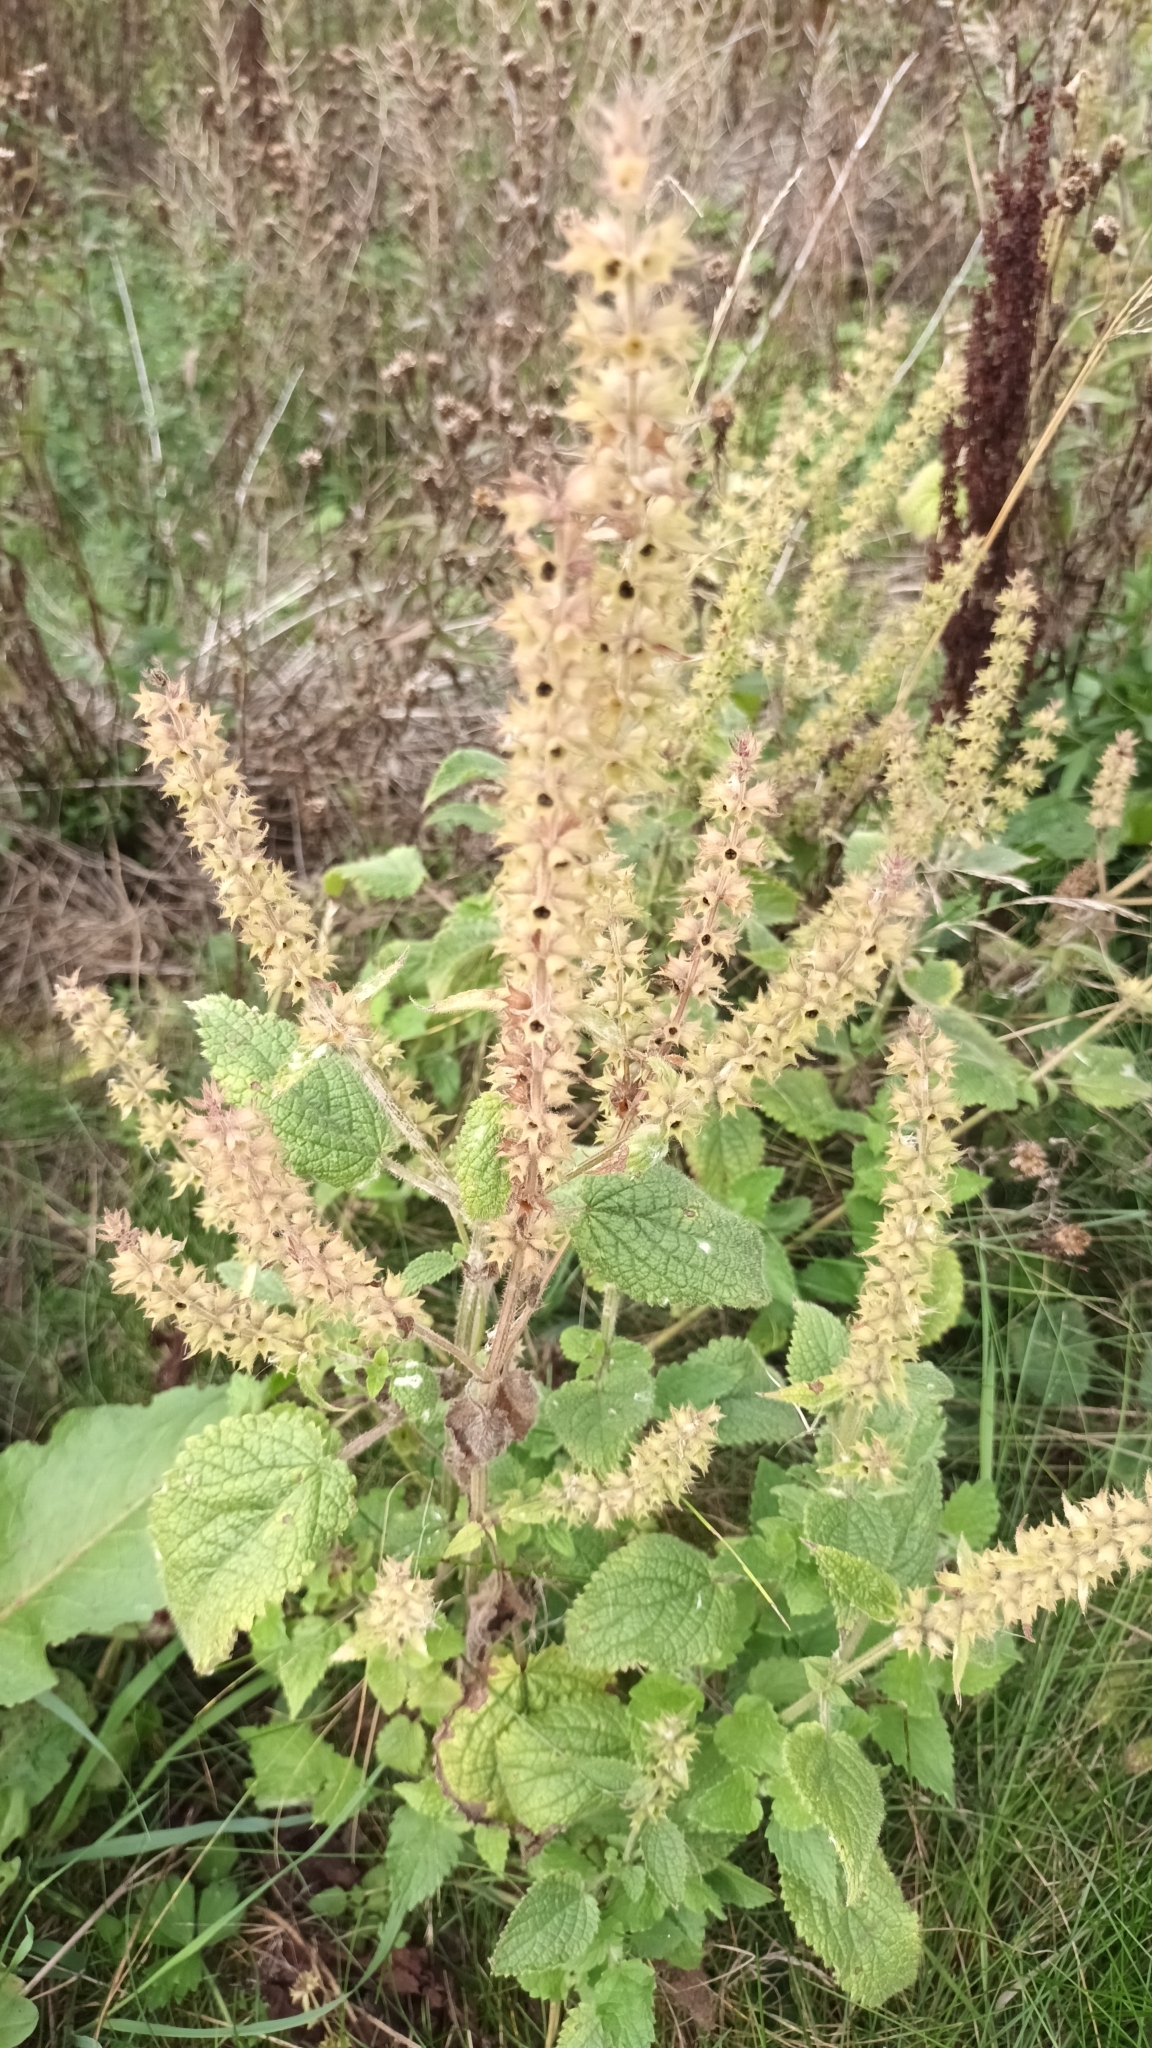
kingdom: Plantae
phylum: Tracheophyta
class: Magnoliopsida
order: Lamiales
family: Lamiaceae
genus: Stachys
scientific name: Stachys sylvatica
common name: Hedge woundwort
